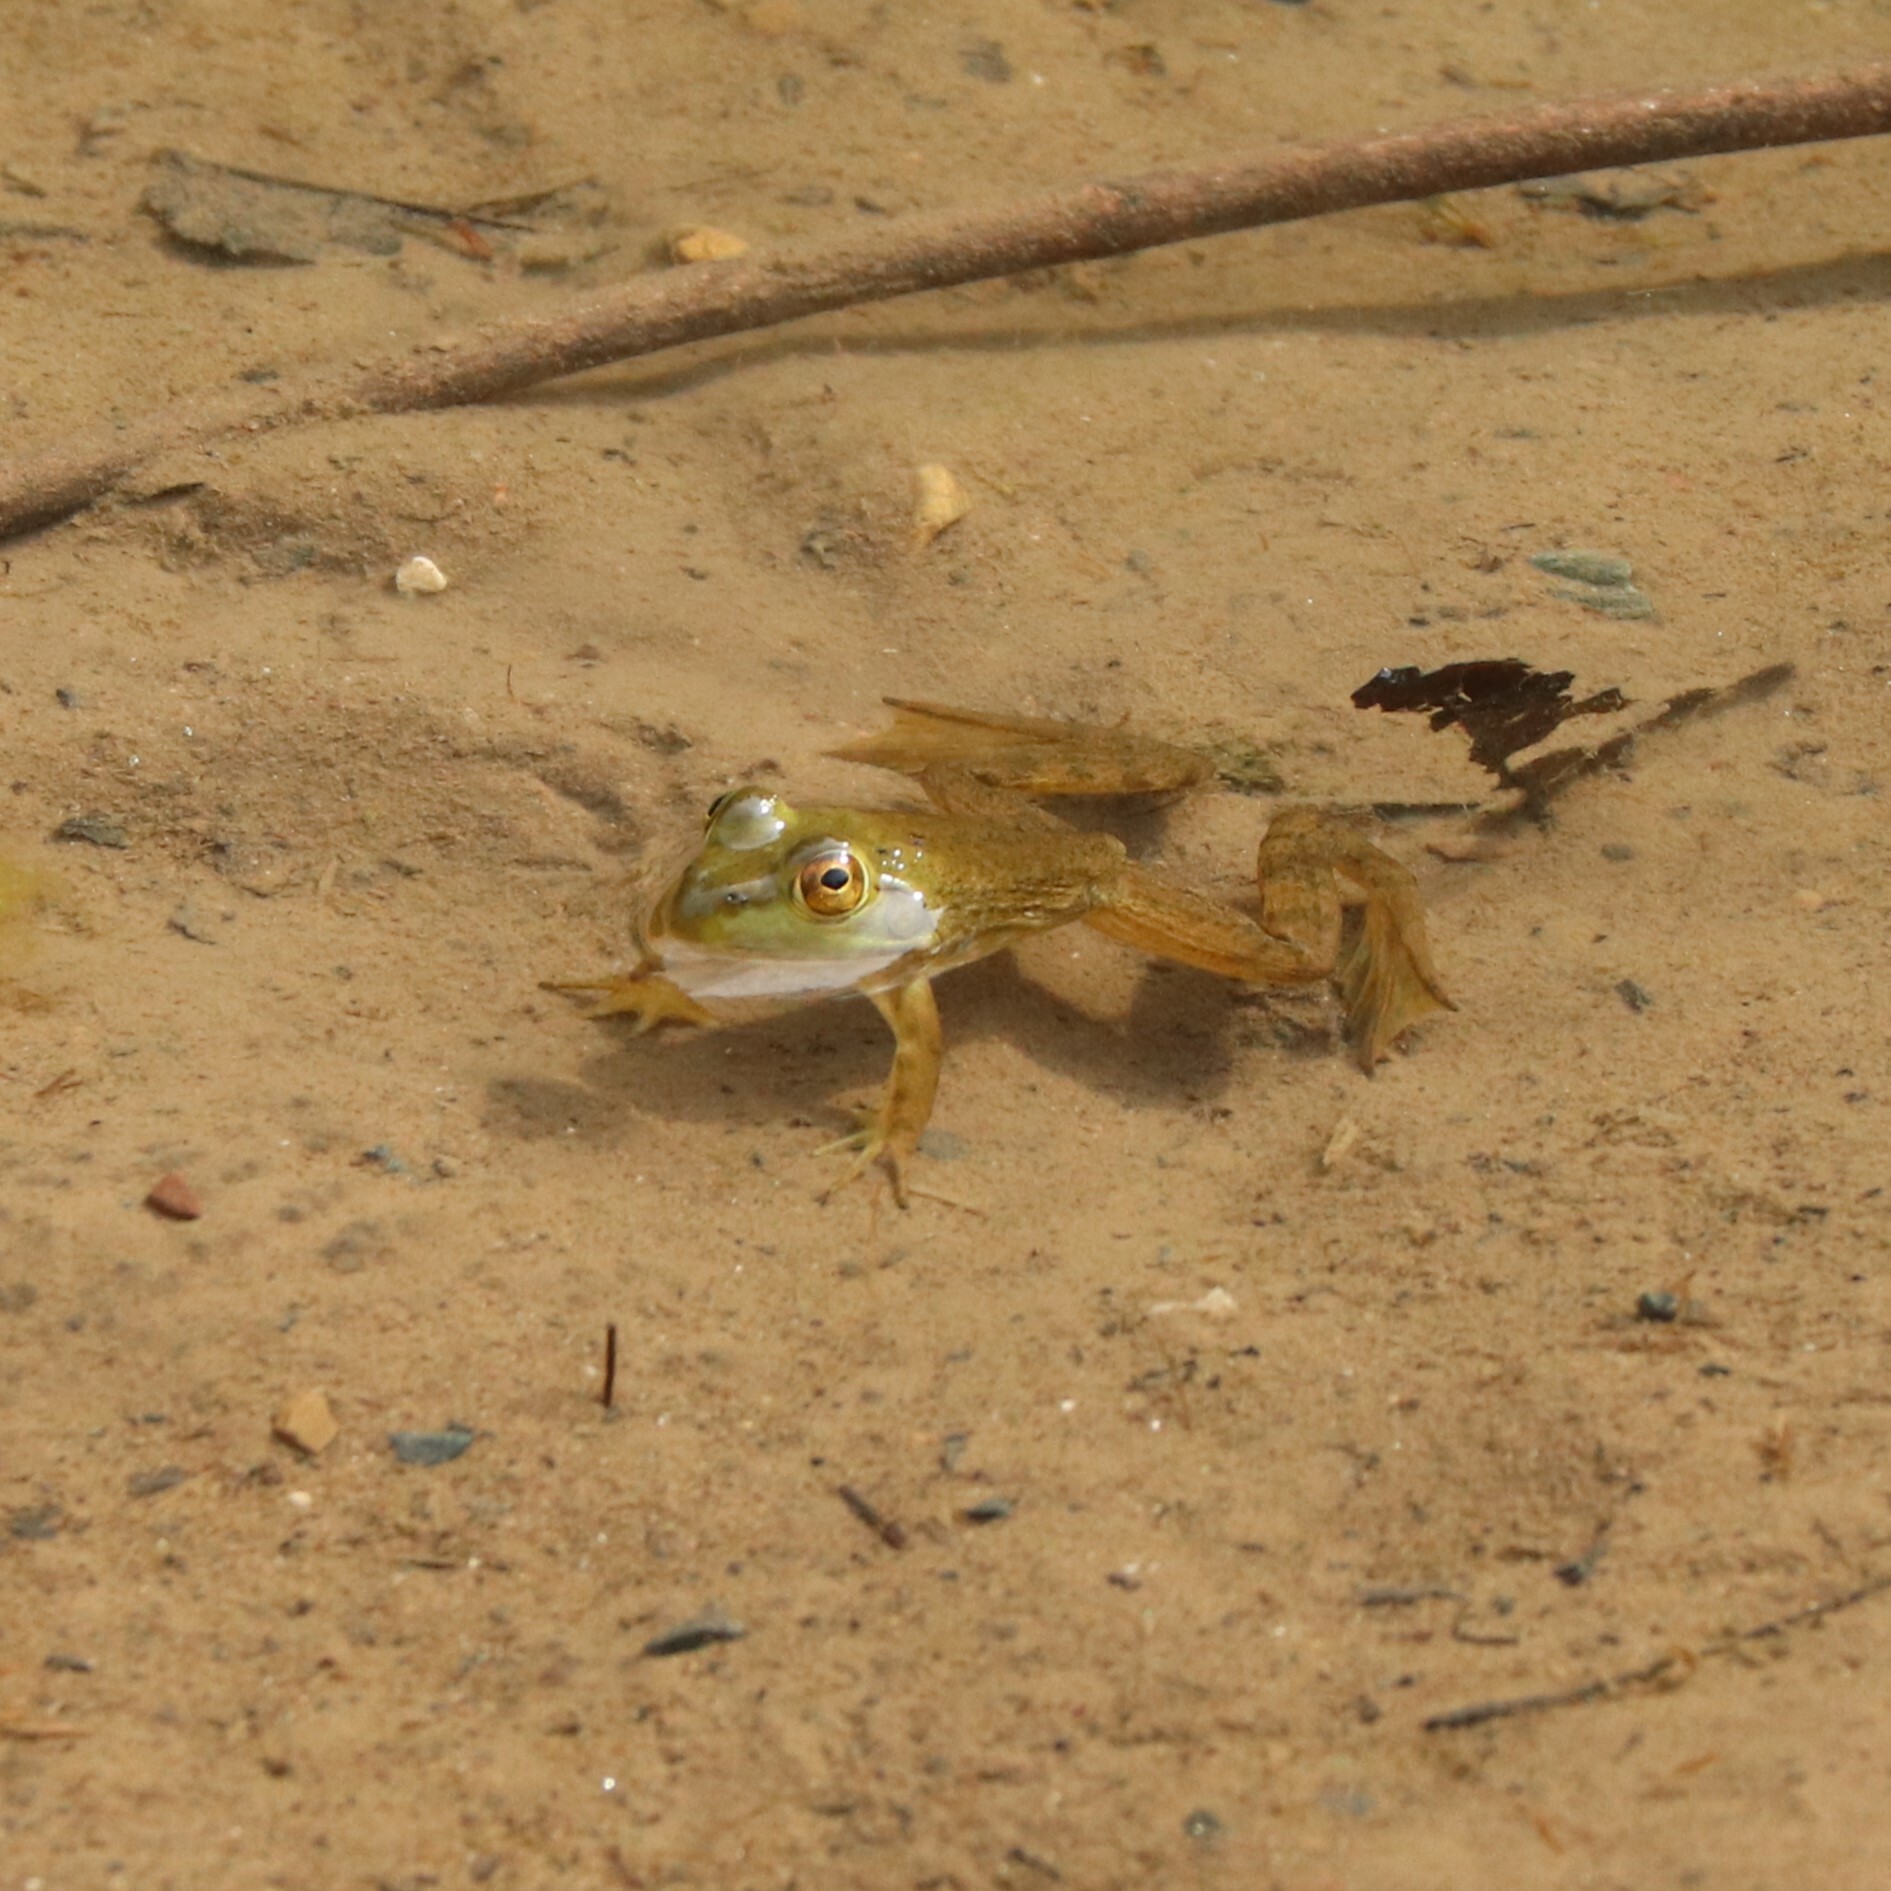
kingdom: Animalia
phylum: Chordata
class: Amphibia
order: Anura
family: Ranidae
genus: Lithobates
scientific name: Lithobates catesbeianus
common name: American bullfrog
